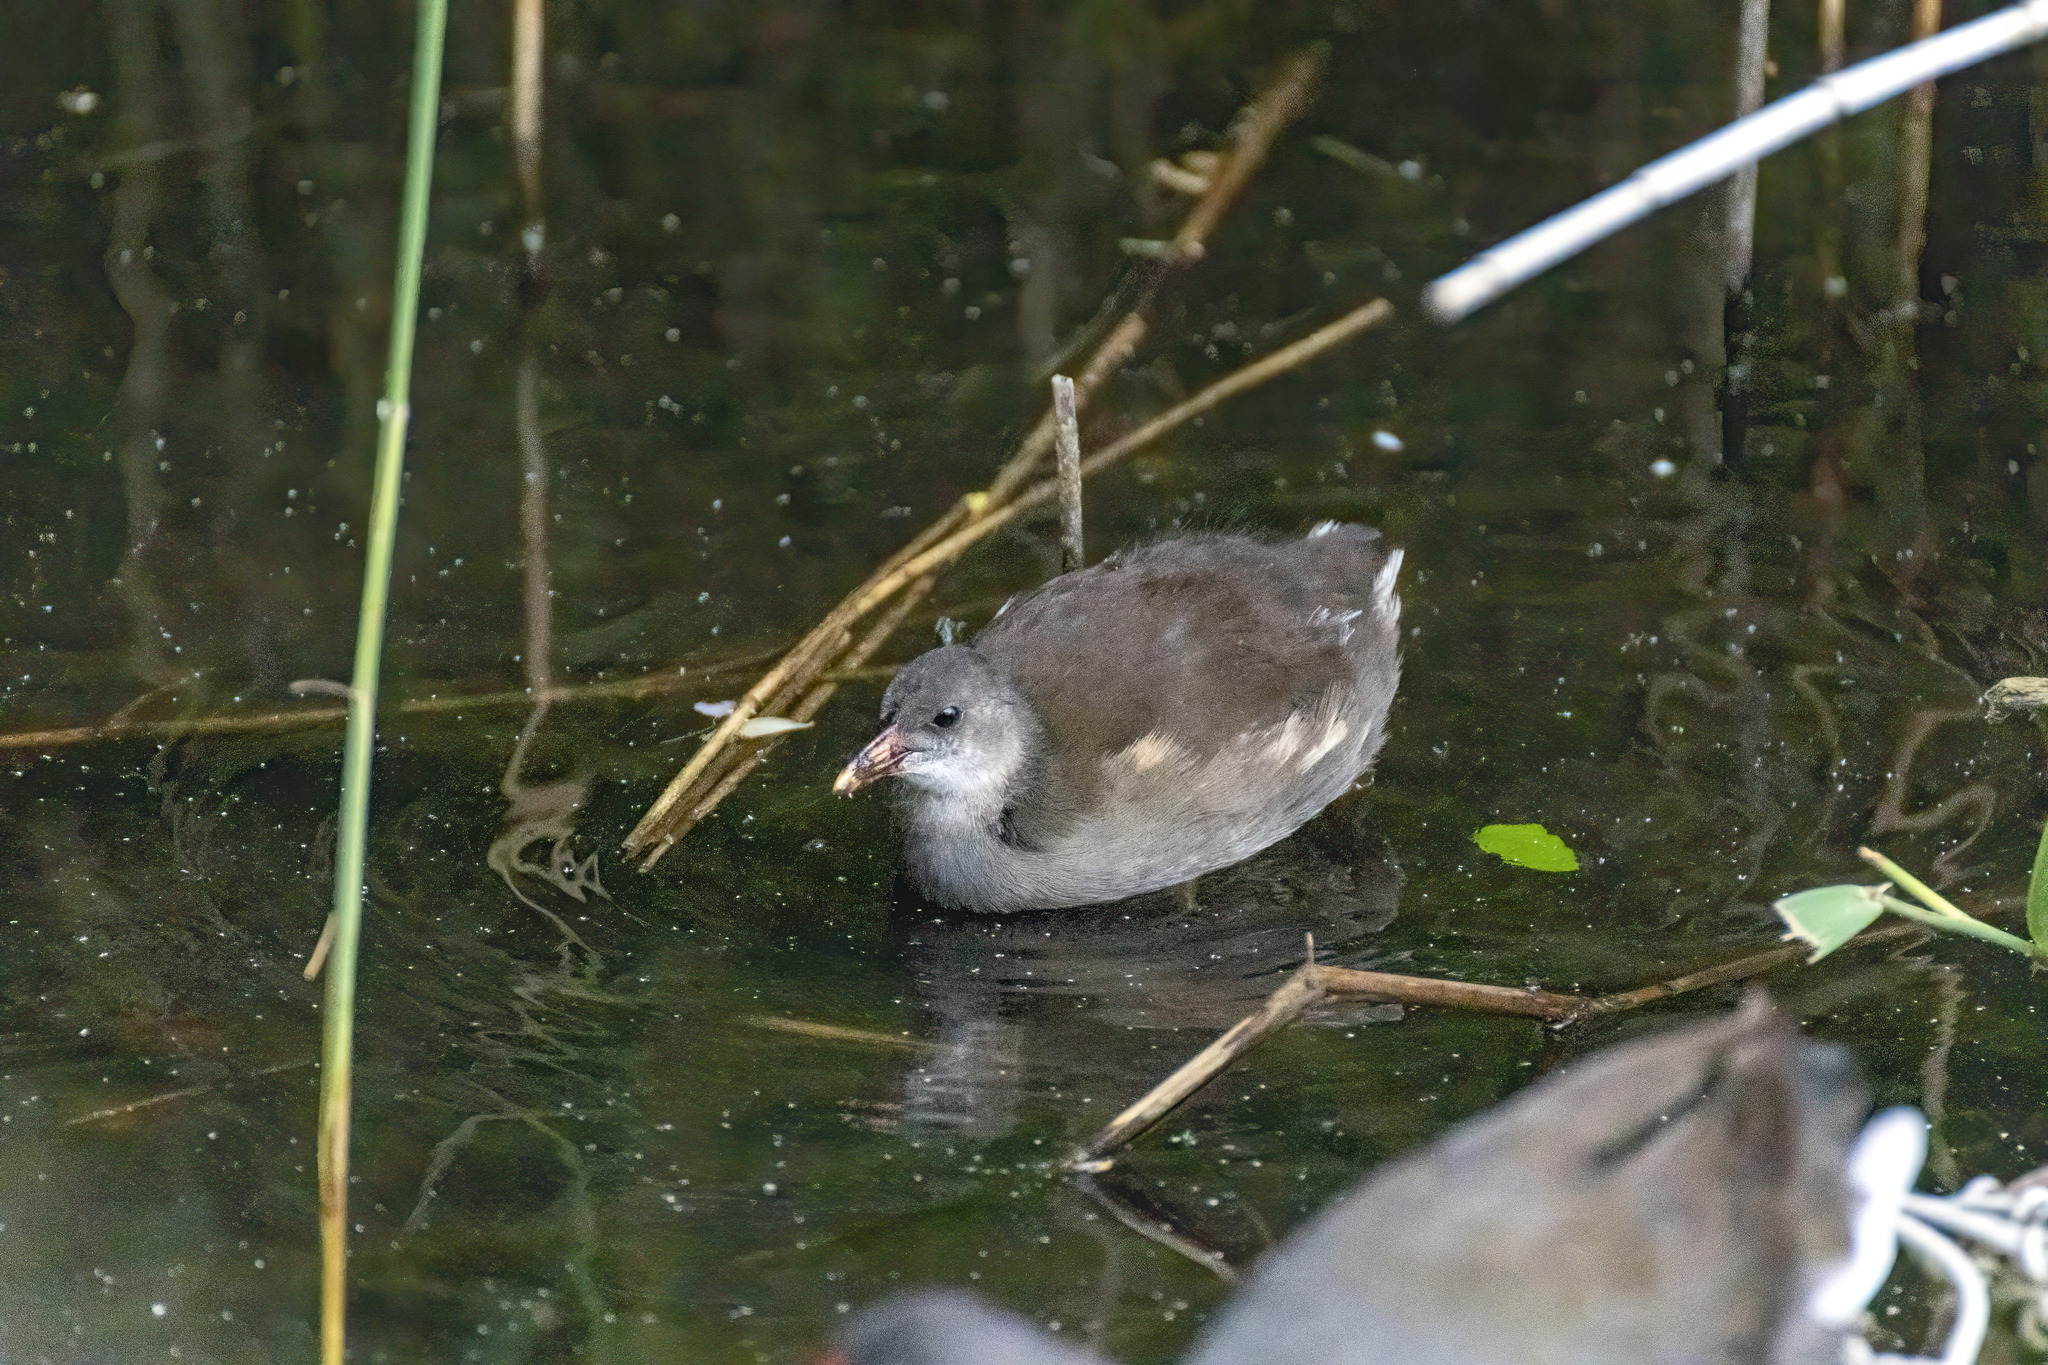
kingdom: Animalia
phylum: Chordata
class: Aves
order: Gruiformes
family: Rallidae
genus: Gallinula
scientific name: Gallinula chloropus
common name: Common moorhen
